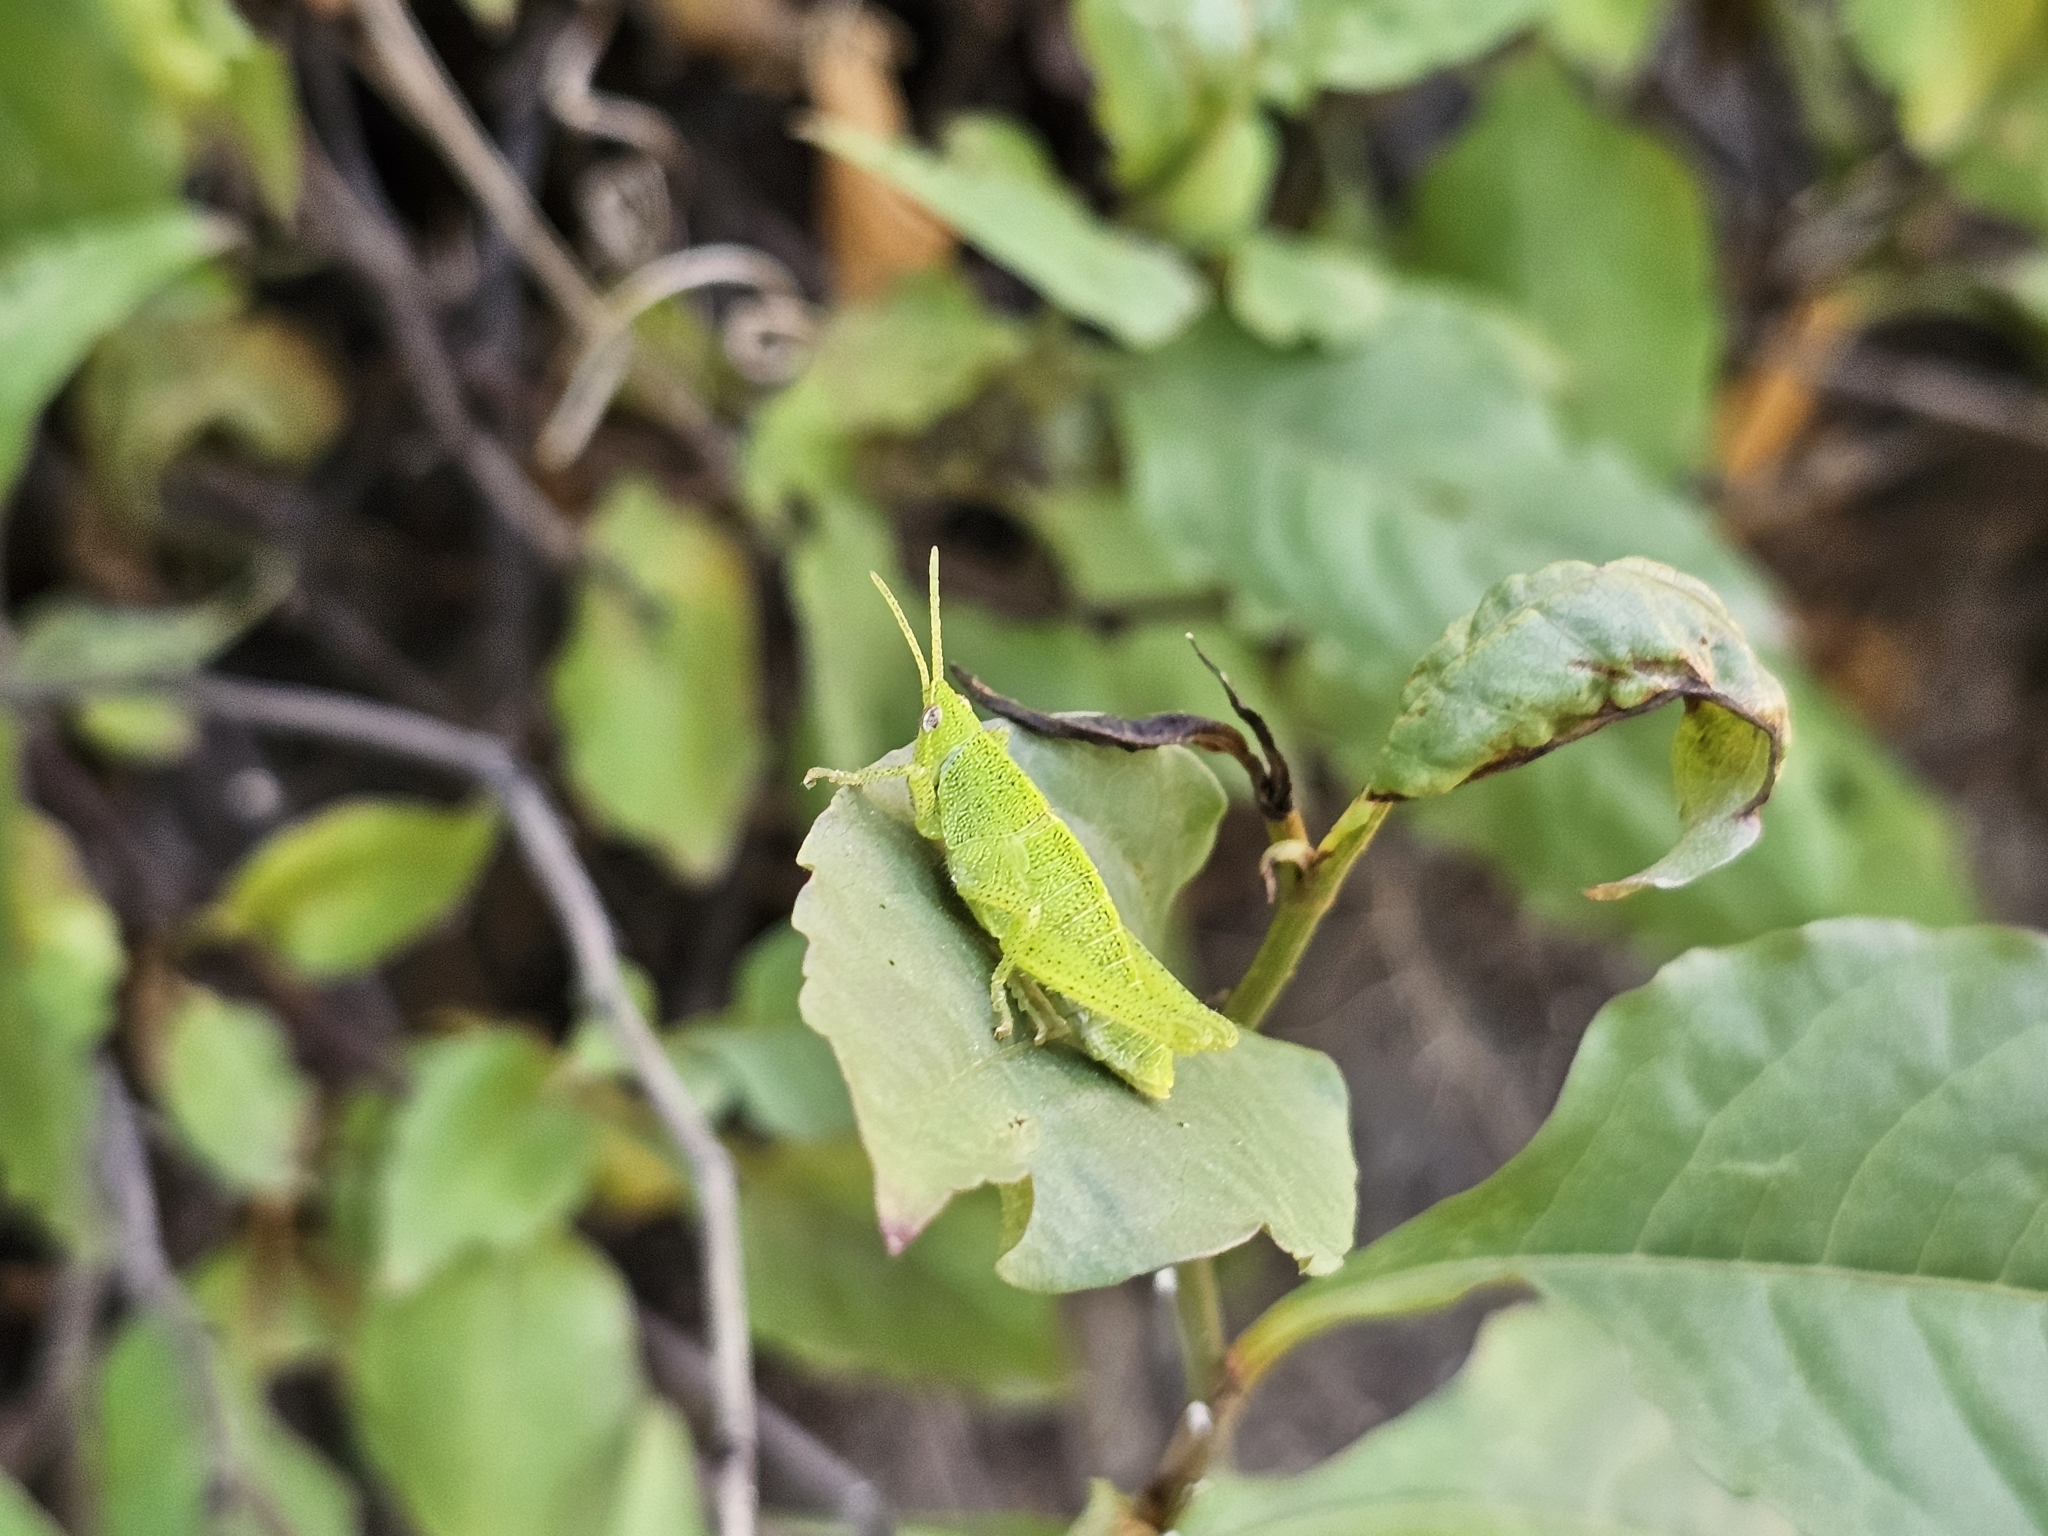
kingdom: Animalia
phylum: Arthropoda
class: Insecta
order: Orthoptera
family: Pyrgomorphidae
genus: Sphenarium
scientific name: Sphenarium purpurascens
